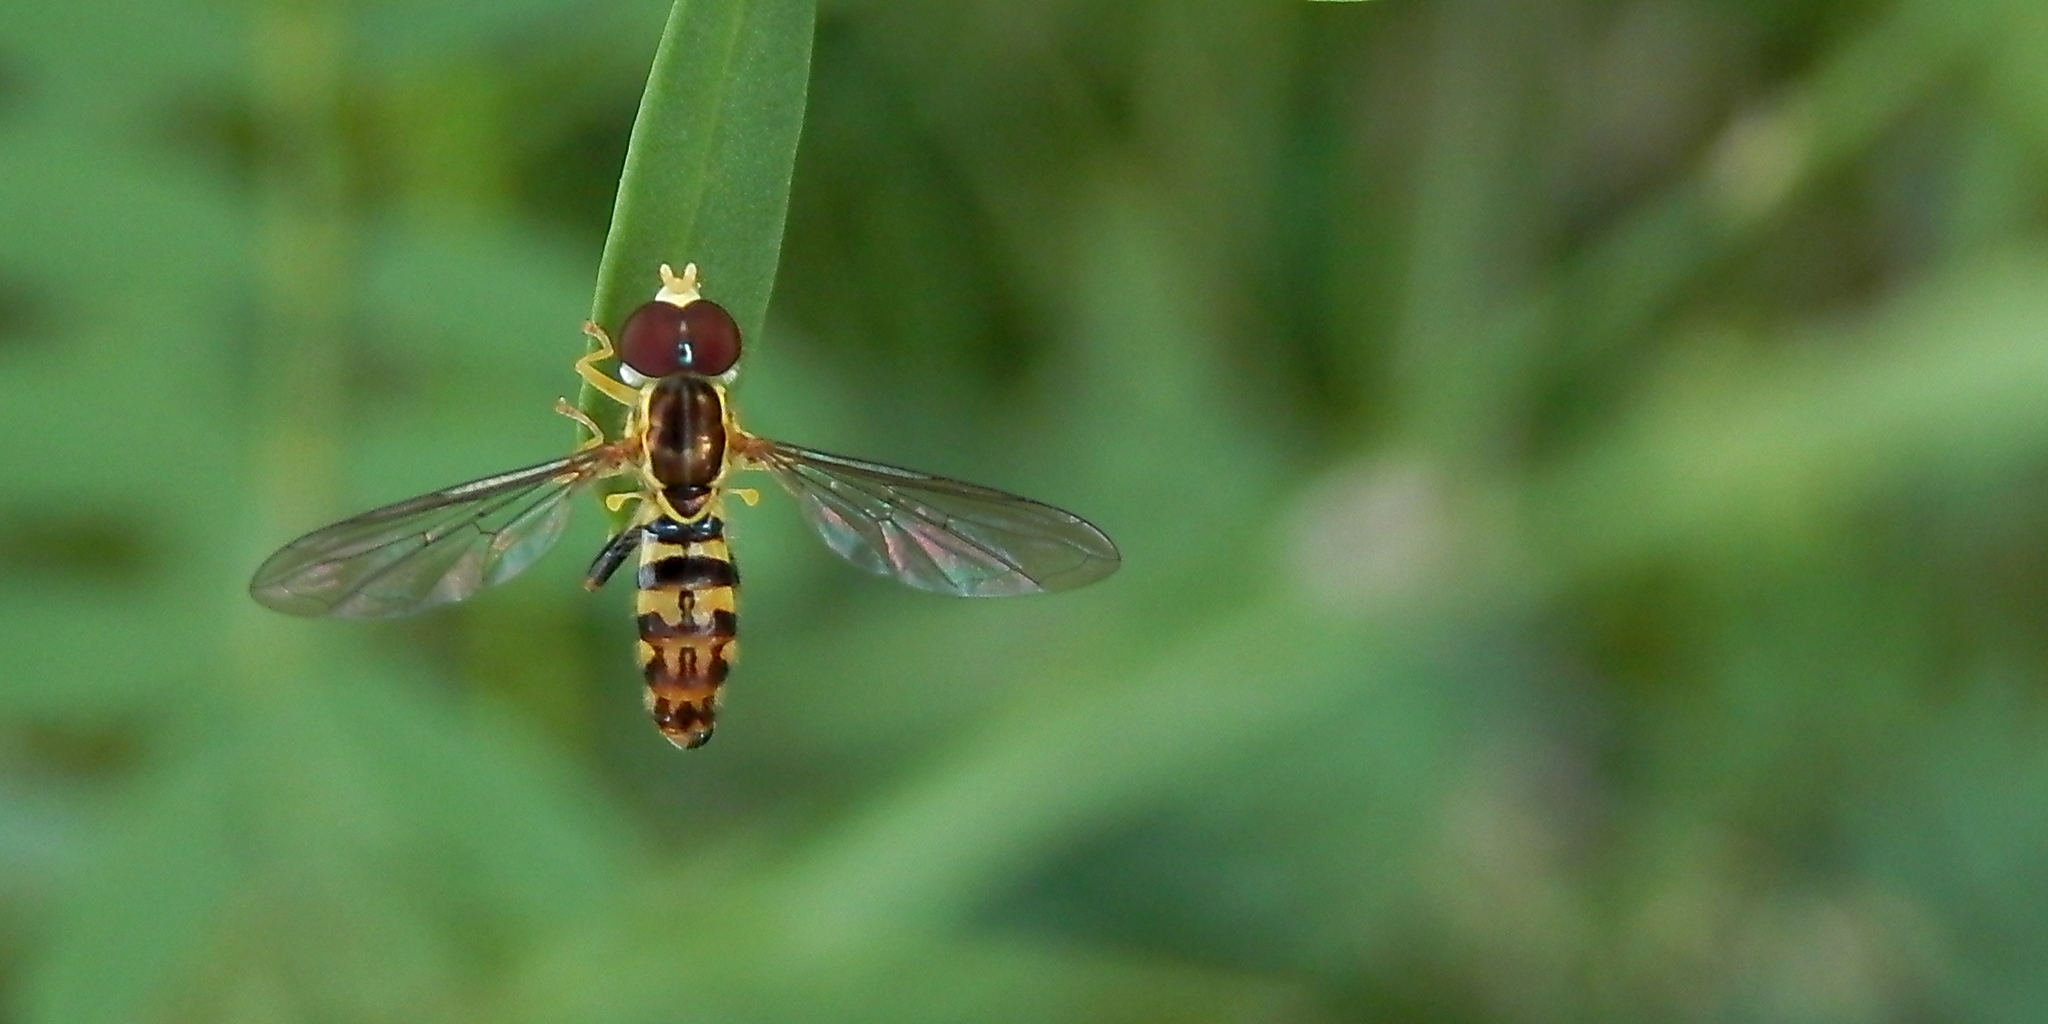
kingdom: Animalia
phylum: Arthropoda
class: Insecta
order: Diptera
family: Syrphidae
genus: Toxomerus
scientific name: Toxomerus geminatus
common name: Eastern calligrapher
